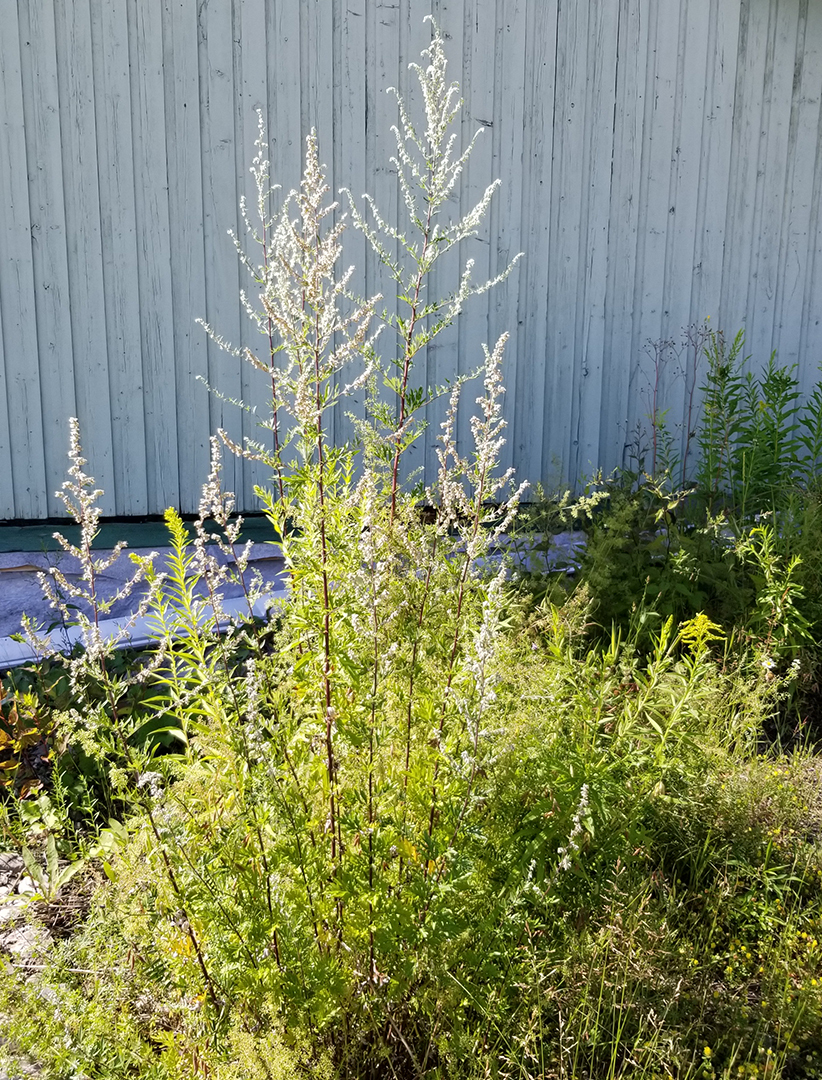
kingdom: Plantae
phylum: Tracheophyta
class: Magnoliopsida
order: Asterales
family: Asteraceae
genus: Artemisia
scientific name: Artemisia vulgaris
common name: Mugwort
